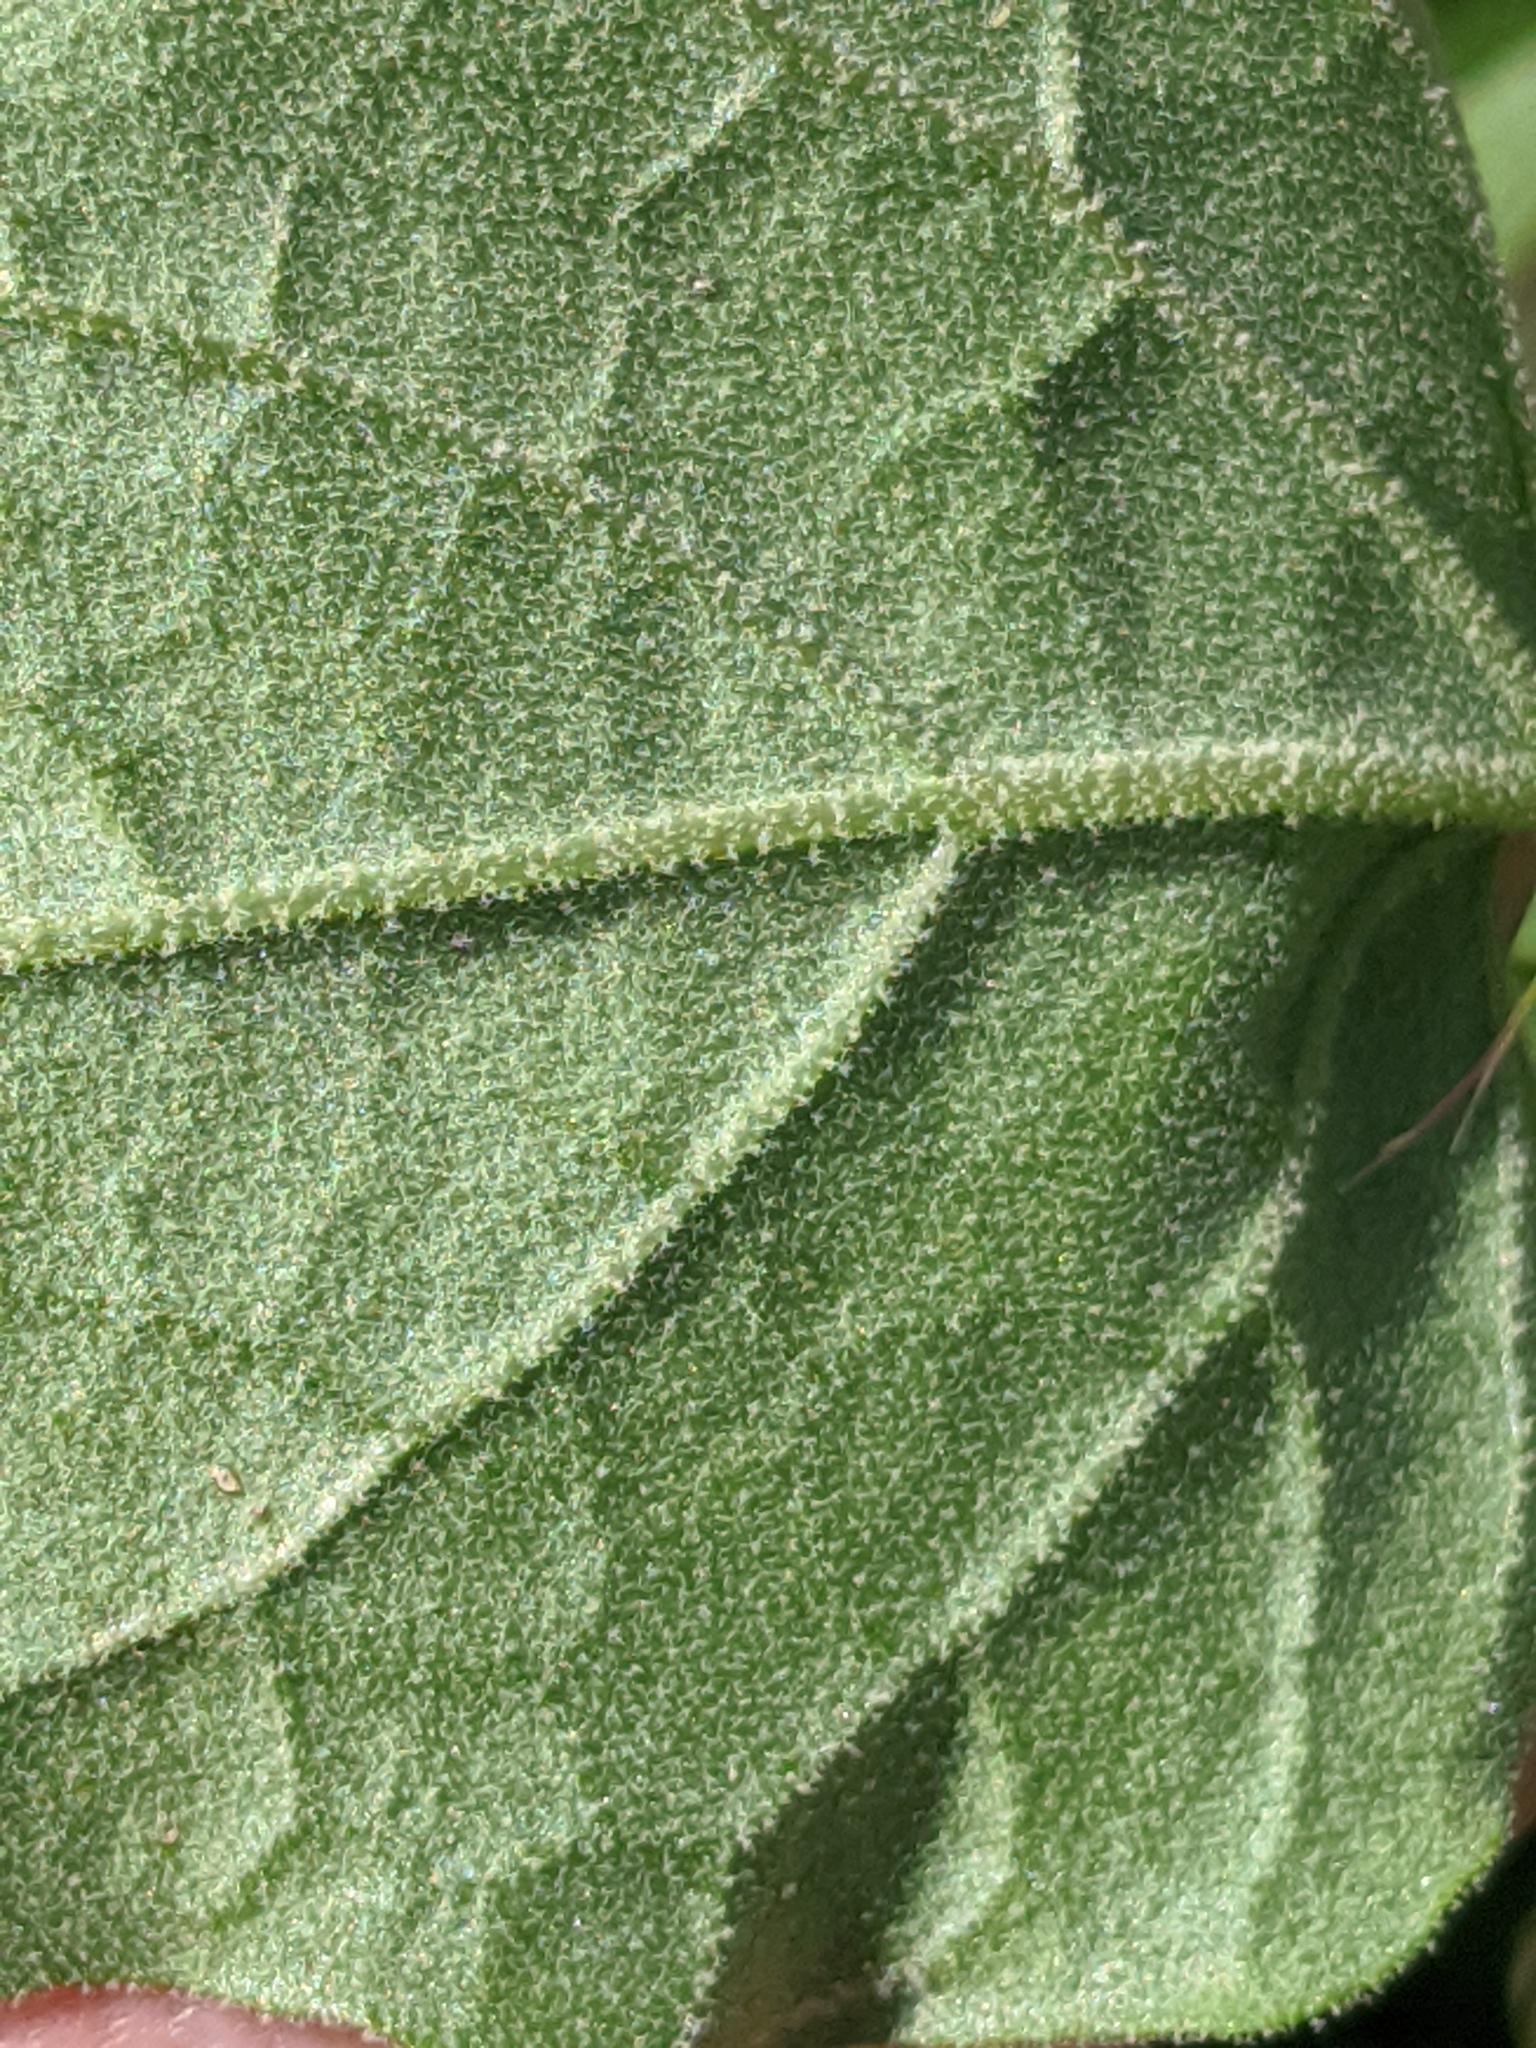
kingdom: Plantae
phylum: Tracheophyta
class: Magnoliopsida
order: Solanales
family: Solanaceae
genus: Physalis
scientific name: Physalis cinerascens
